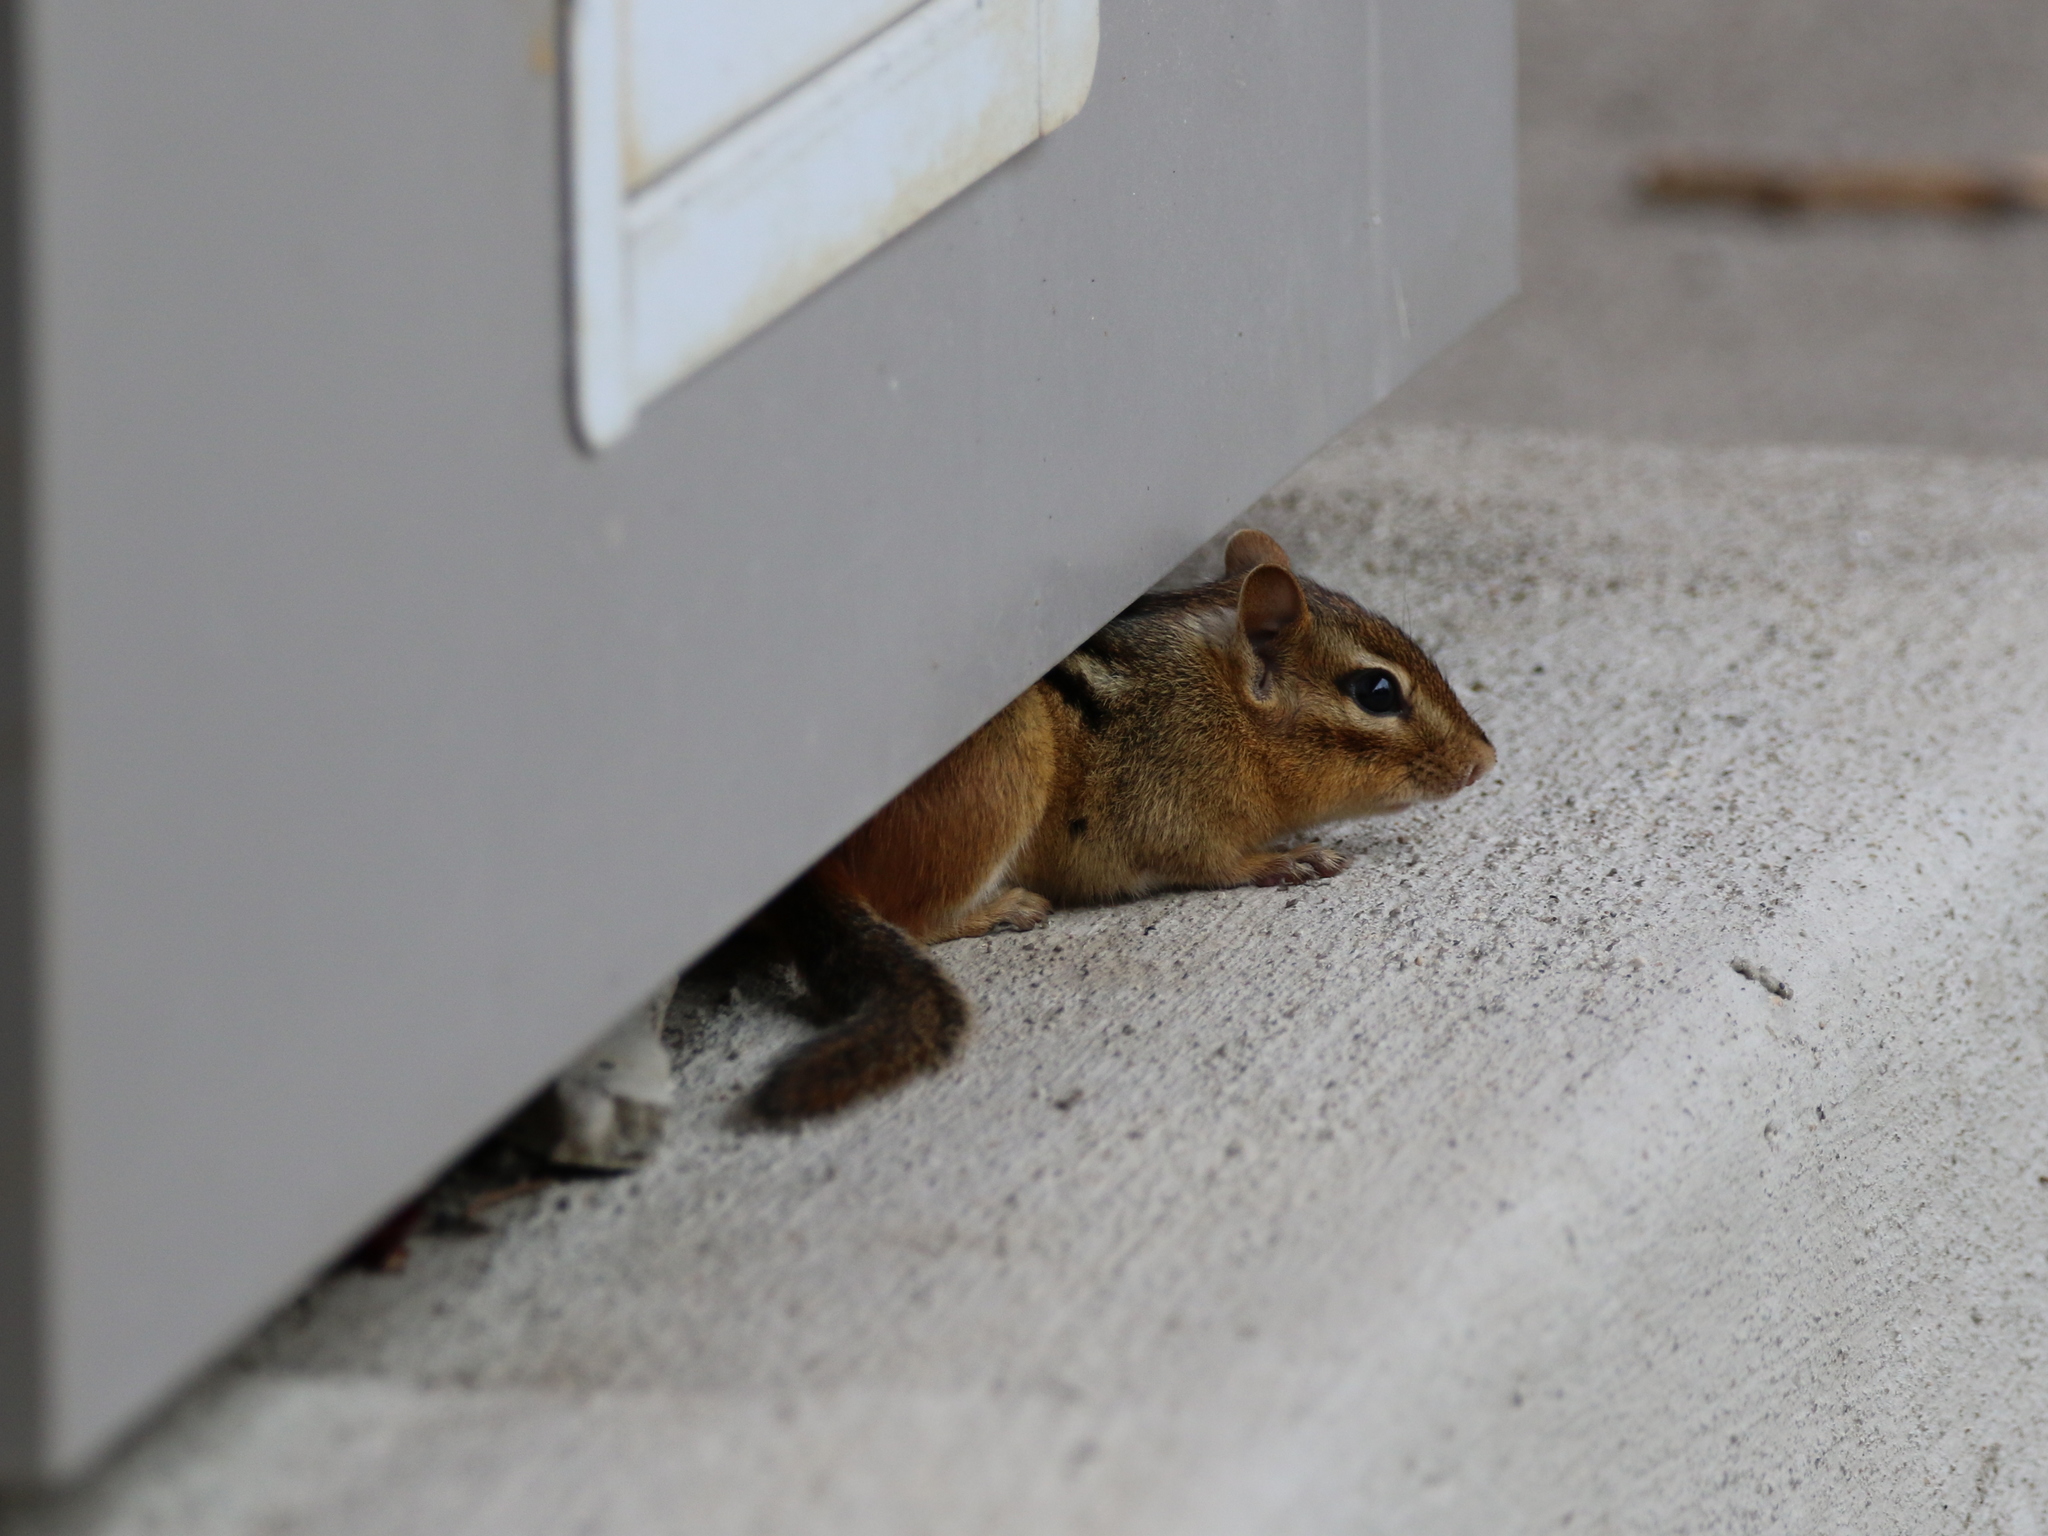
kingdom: Animalia
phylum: Chordata
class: Mammalia
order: Rodentia
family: Sciuridae
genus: Tamias
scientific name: Tamias striatus
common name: Eastern chipmunk
